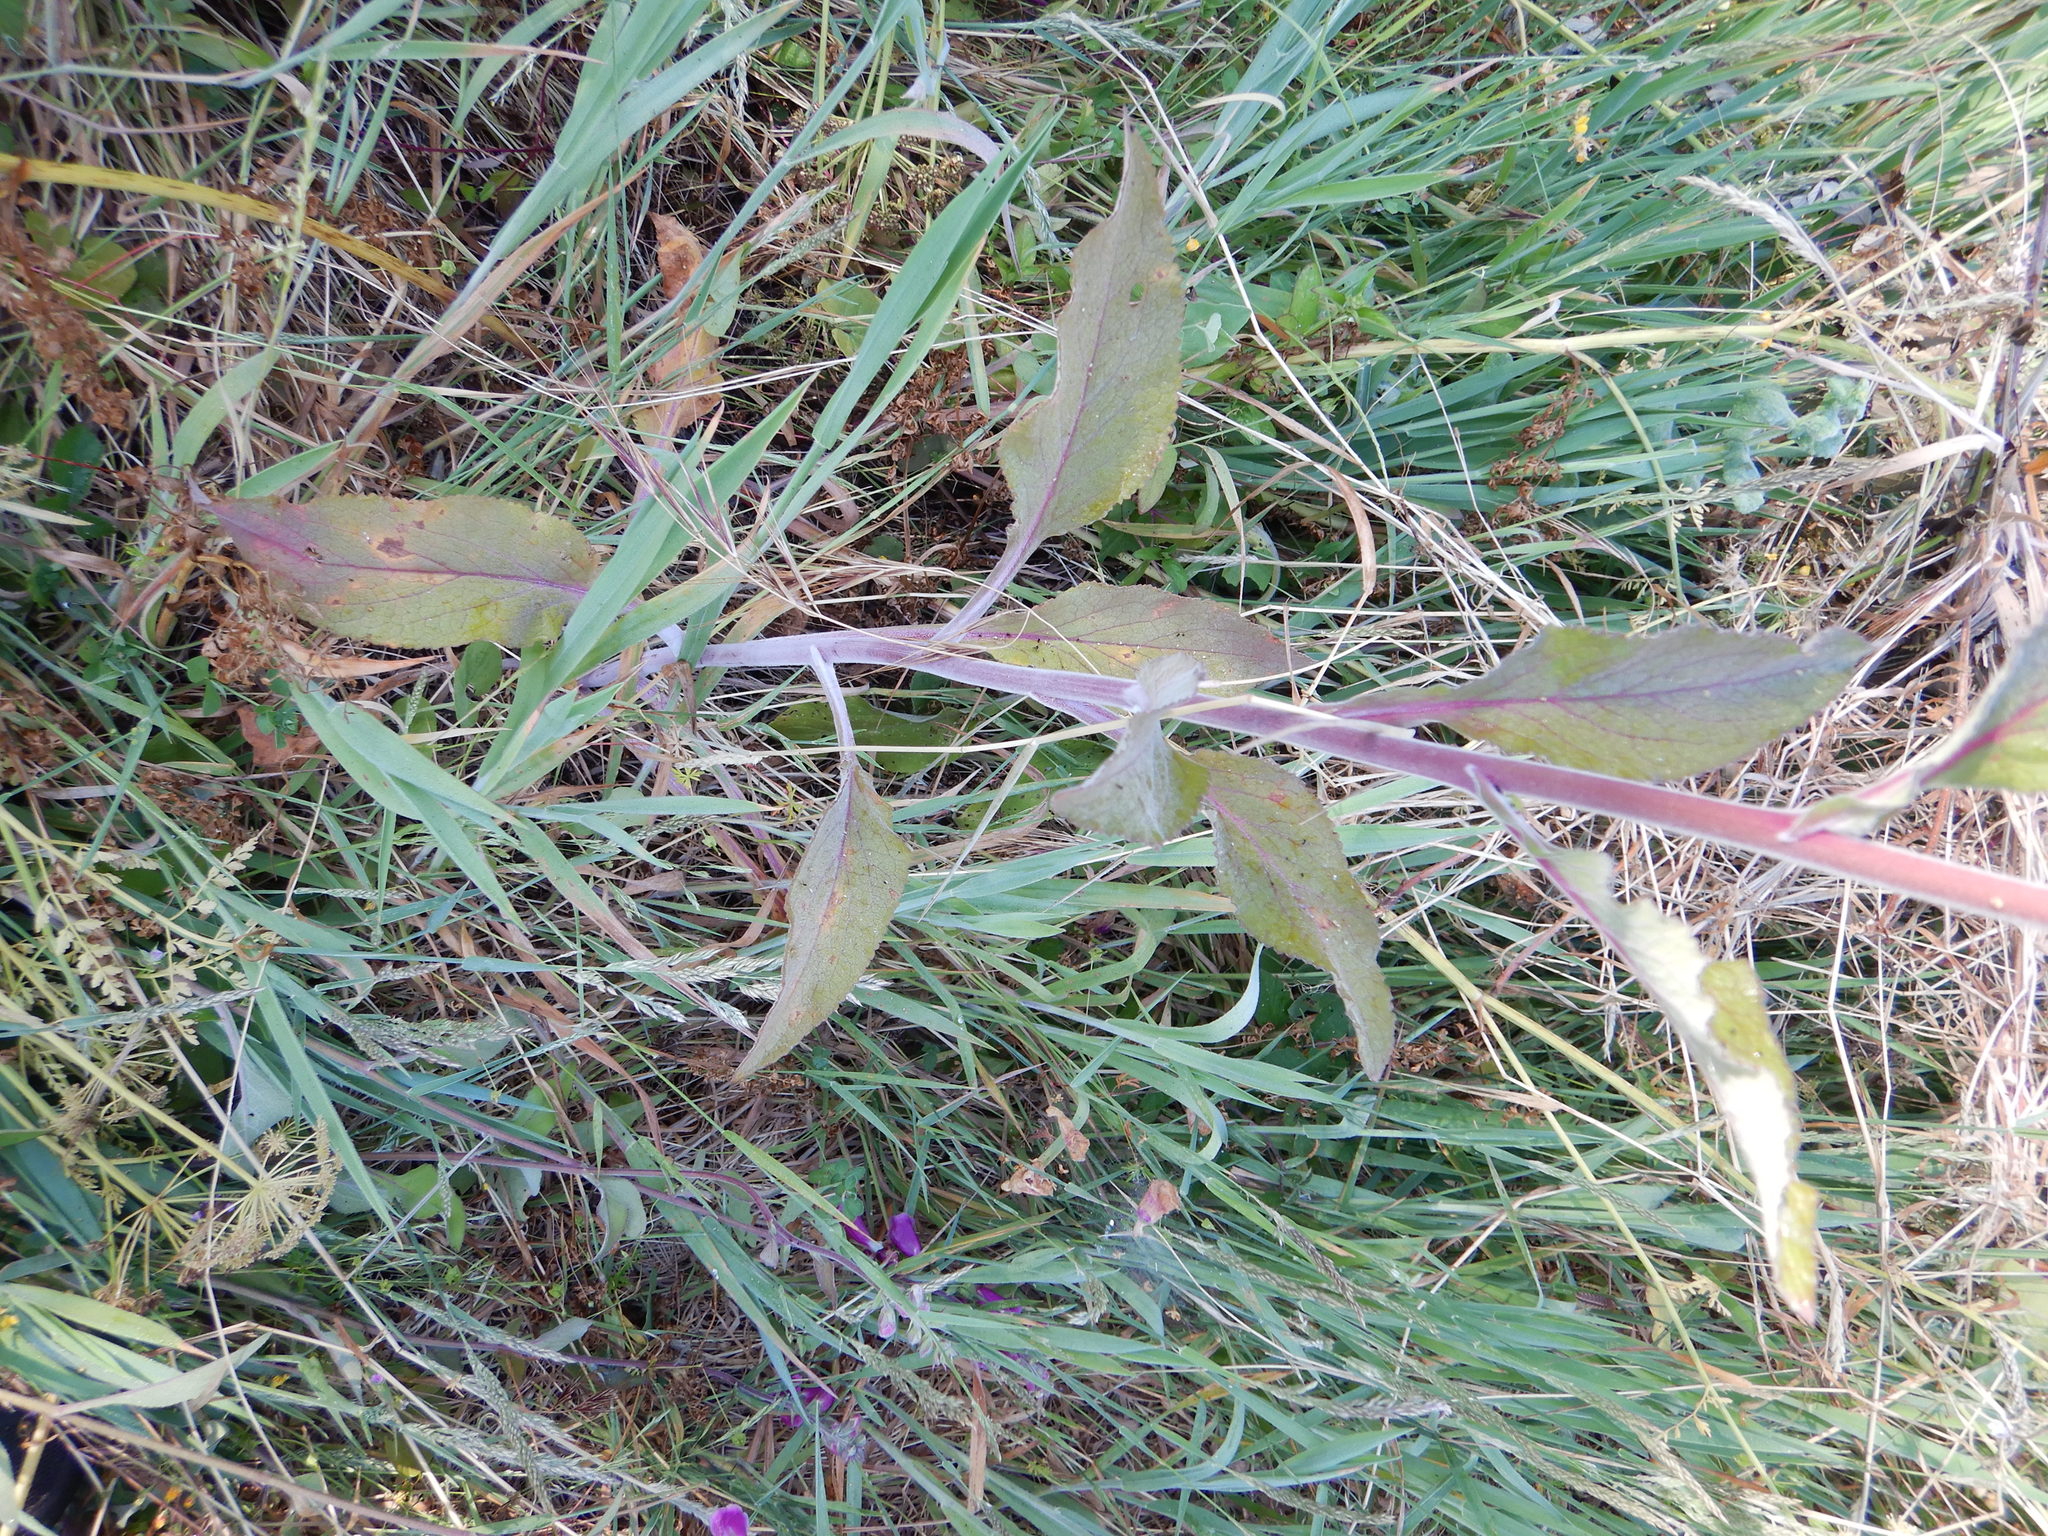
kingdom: Plantae
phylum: Tracheophyta
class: Magnoliopsida
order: Lamiales
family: Plantaginaceae
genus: Digitalis
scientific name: Digitalis purpurea
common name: Foxglove
